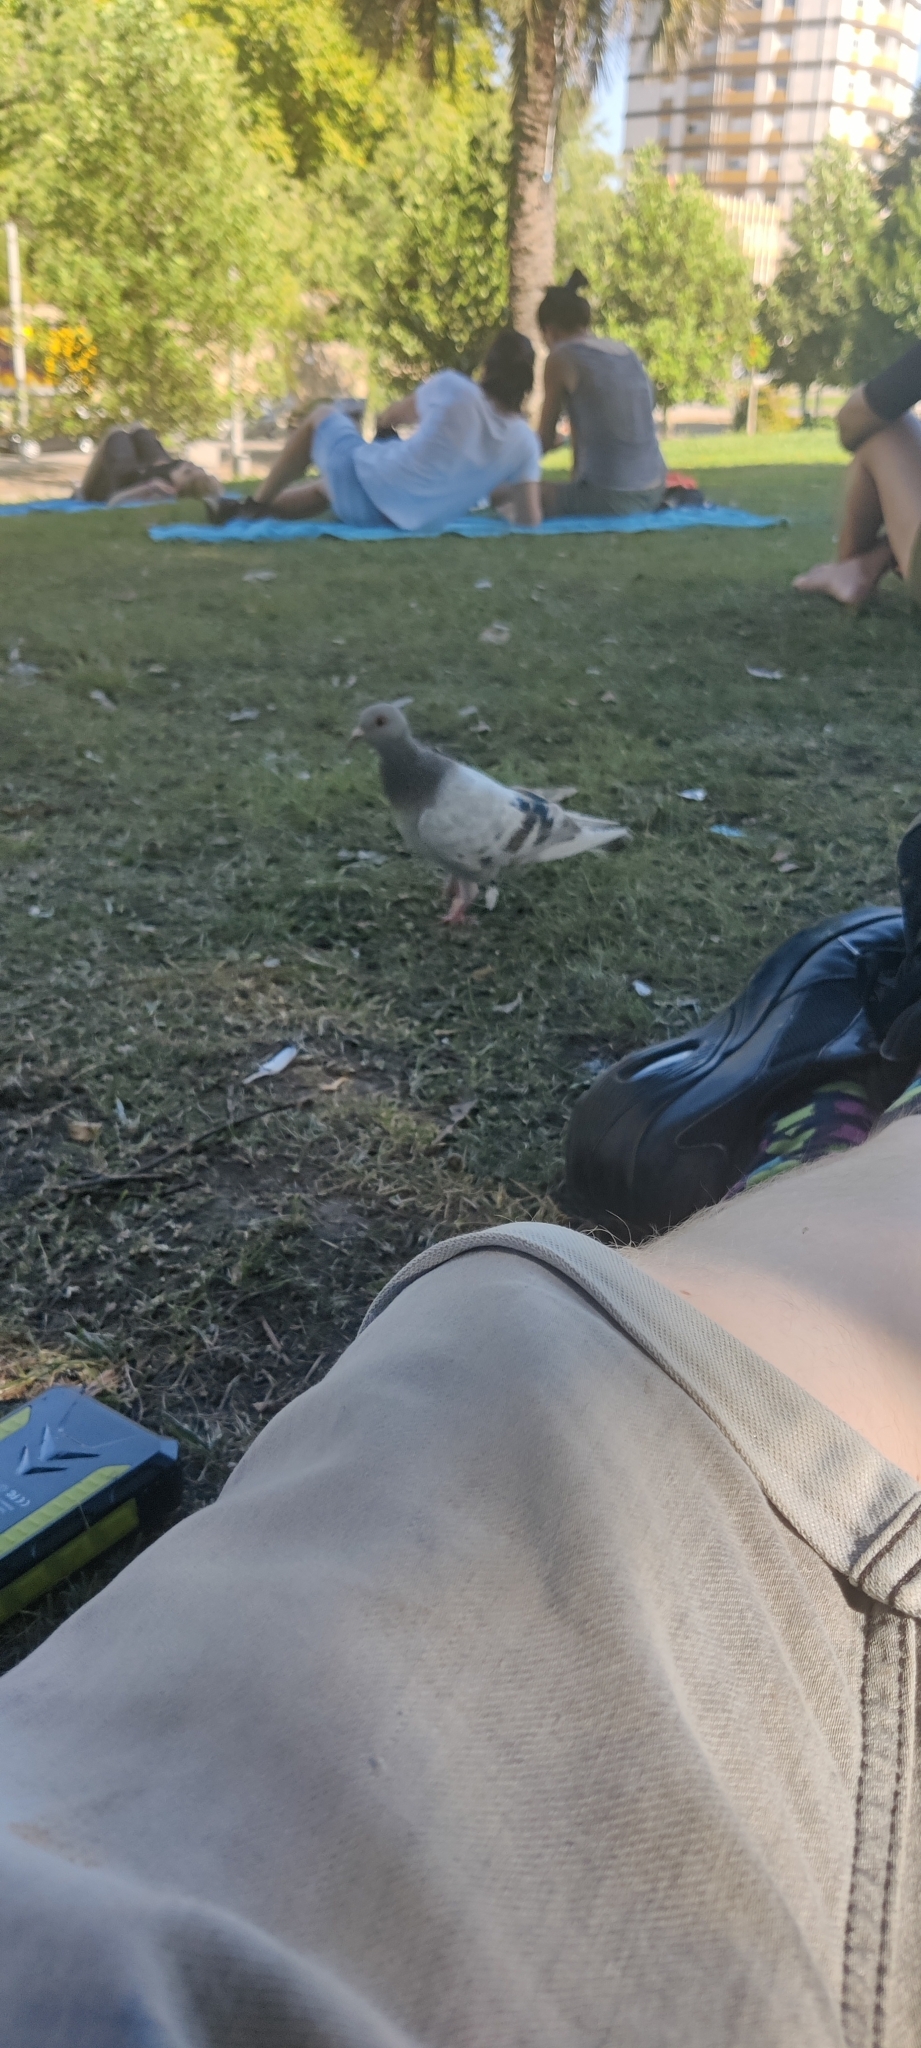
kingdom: Animalia
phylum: Chordata
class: Aves
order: Columbiformes
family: Columbidae
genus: Columba
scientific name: Columba livia
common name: Rock pigeon
